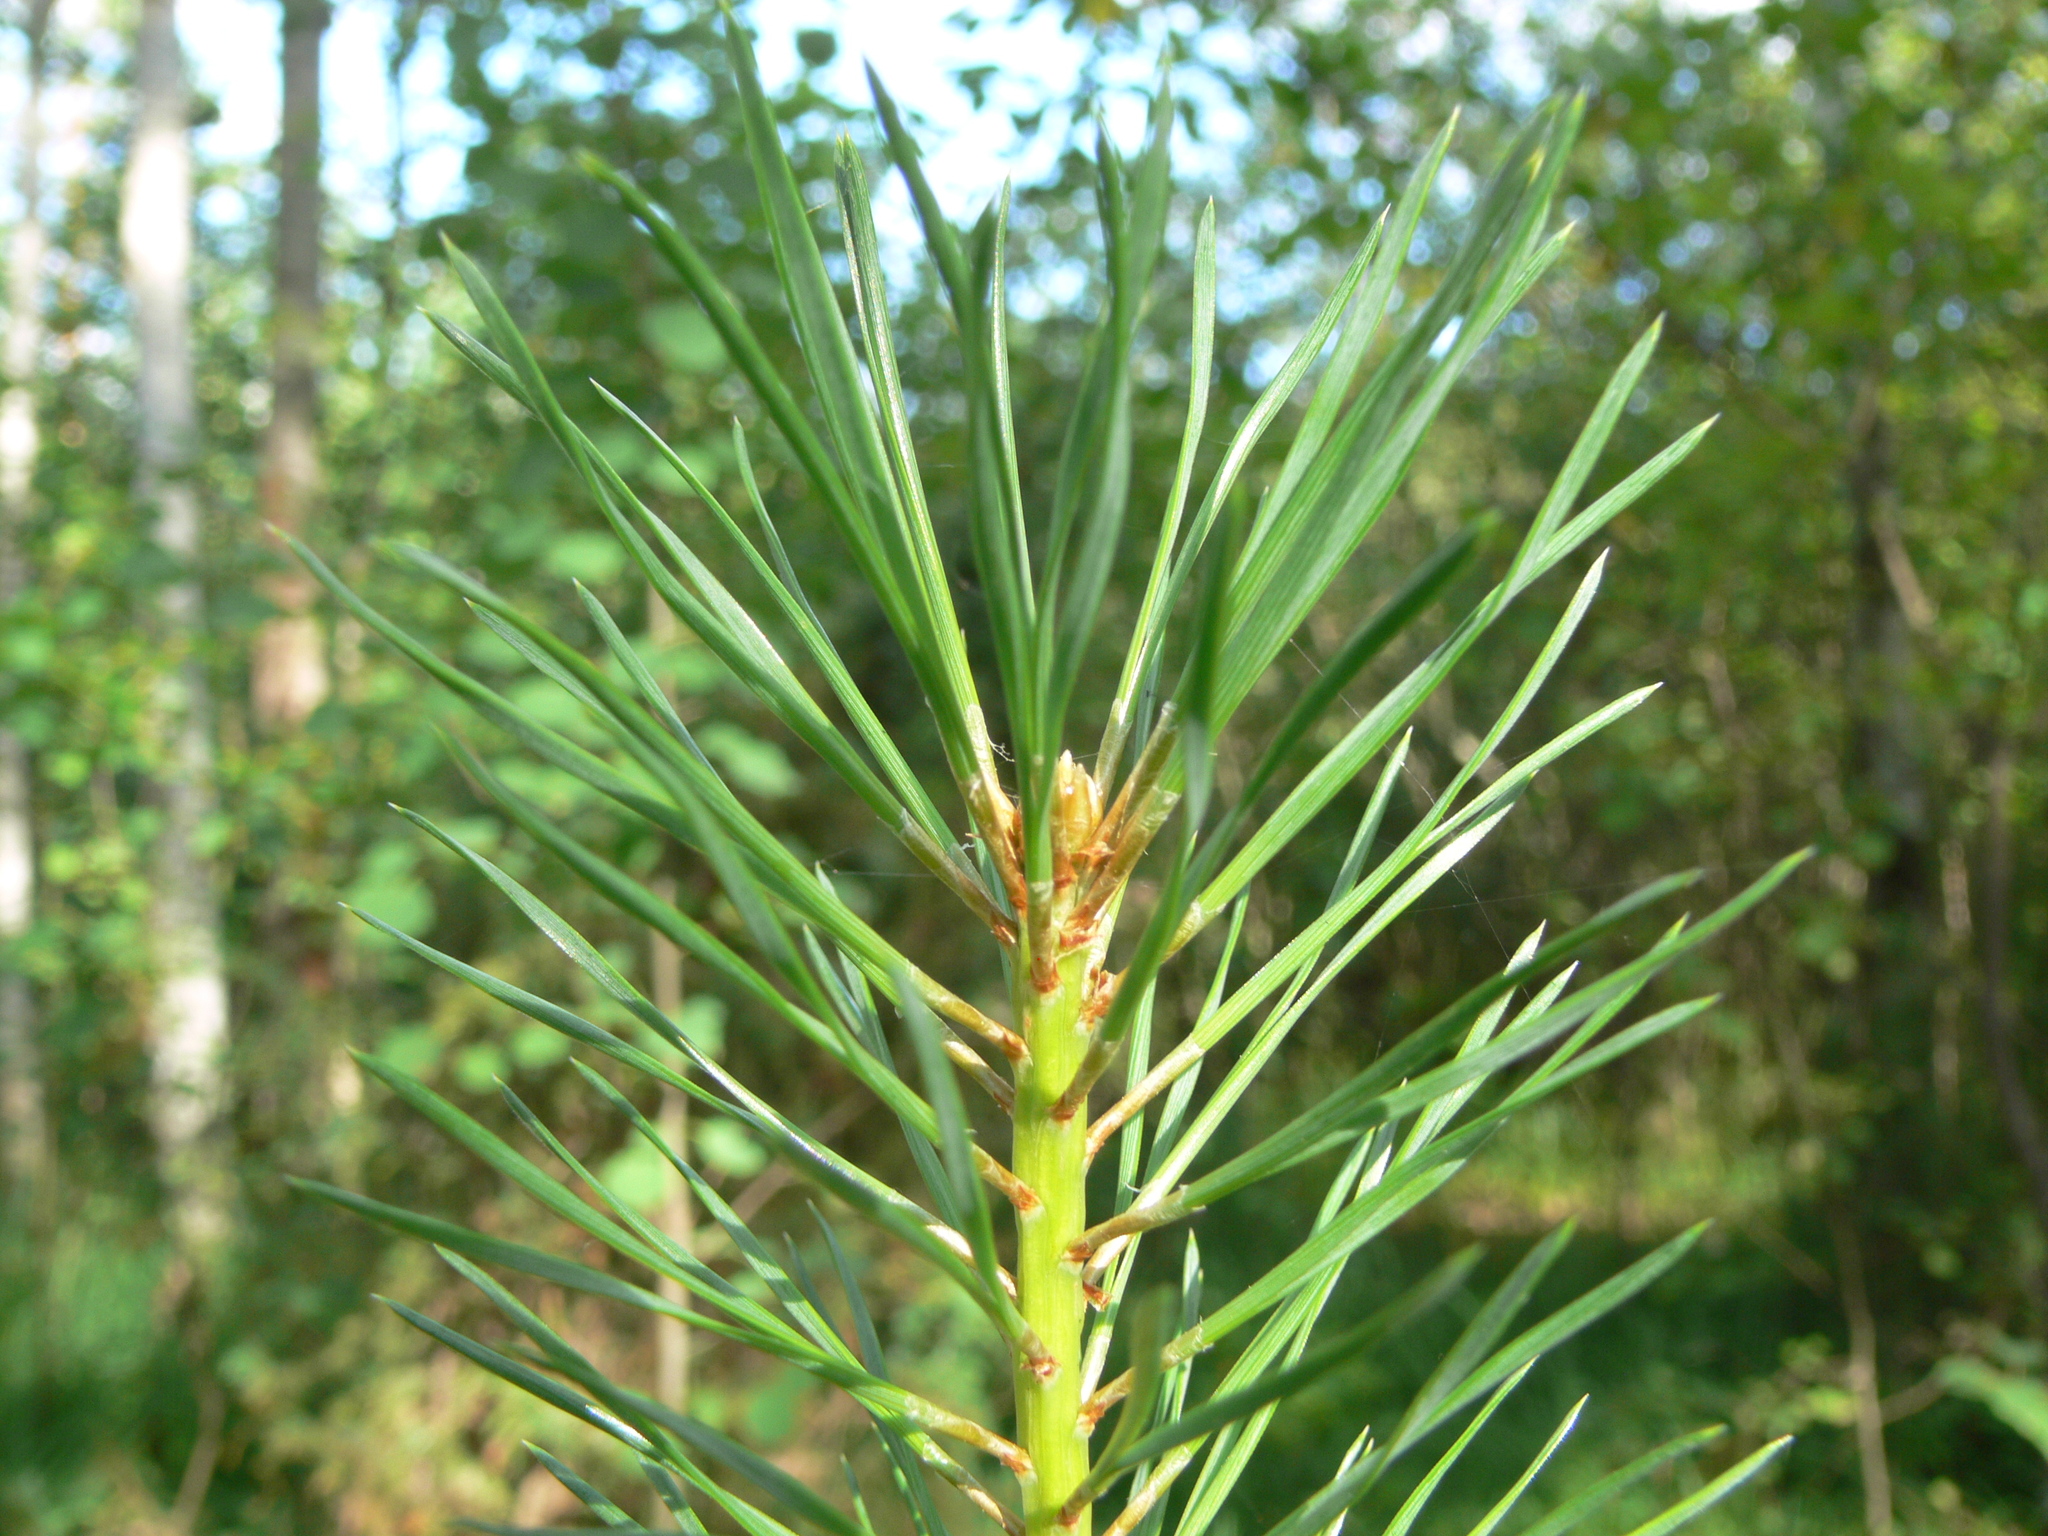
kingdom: Plantae
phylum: Tracheophyta
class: Pinopsida
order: Pinales
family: Pinaceae
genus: Pinus
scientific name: Pinus sylvestris
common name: Scots pine
